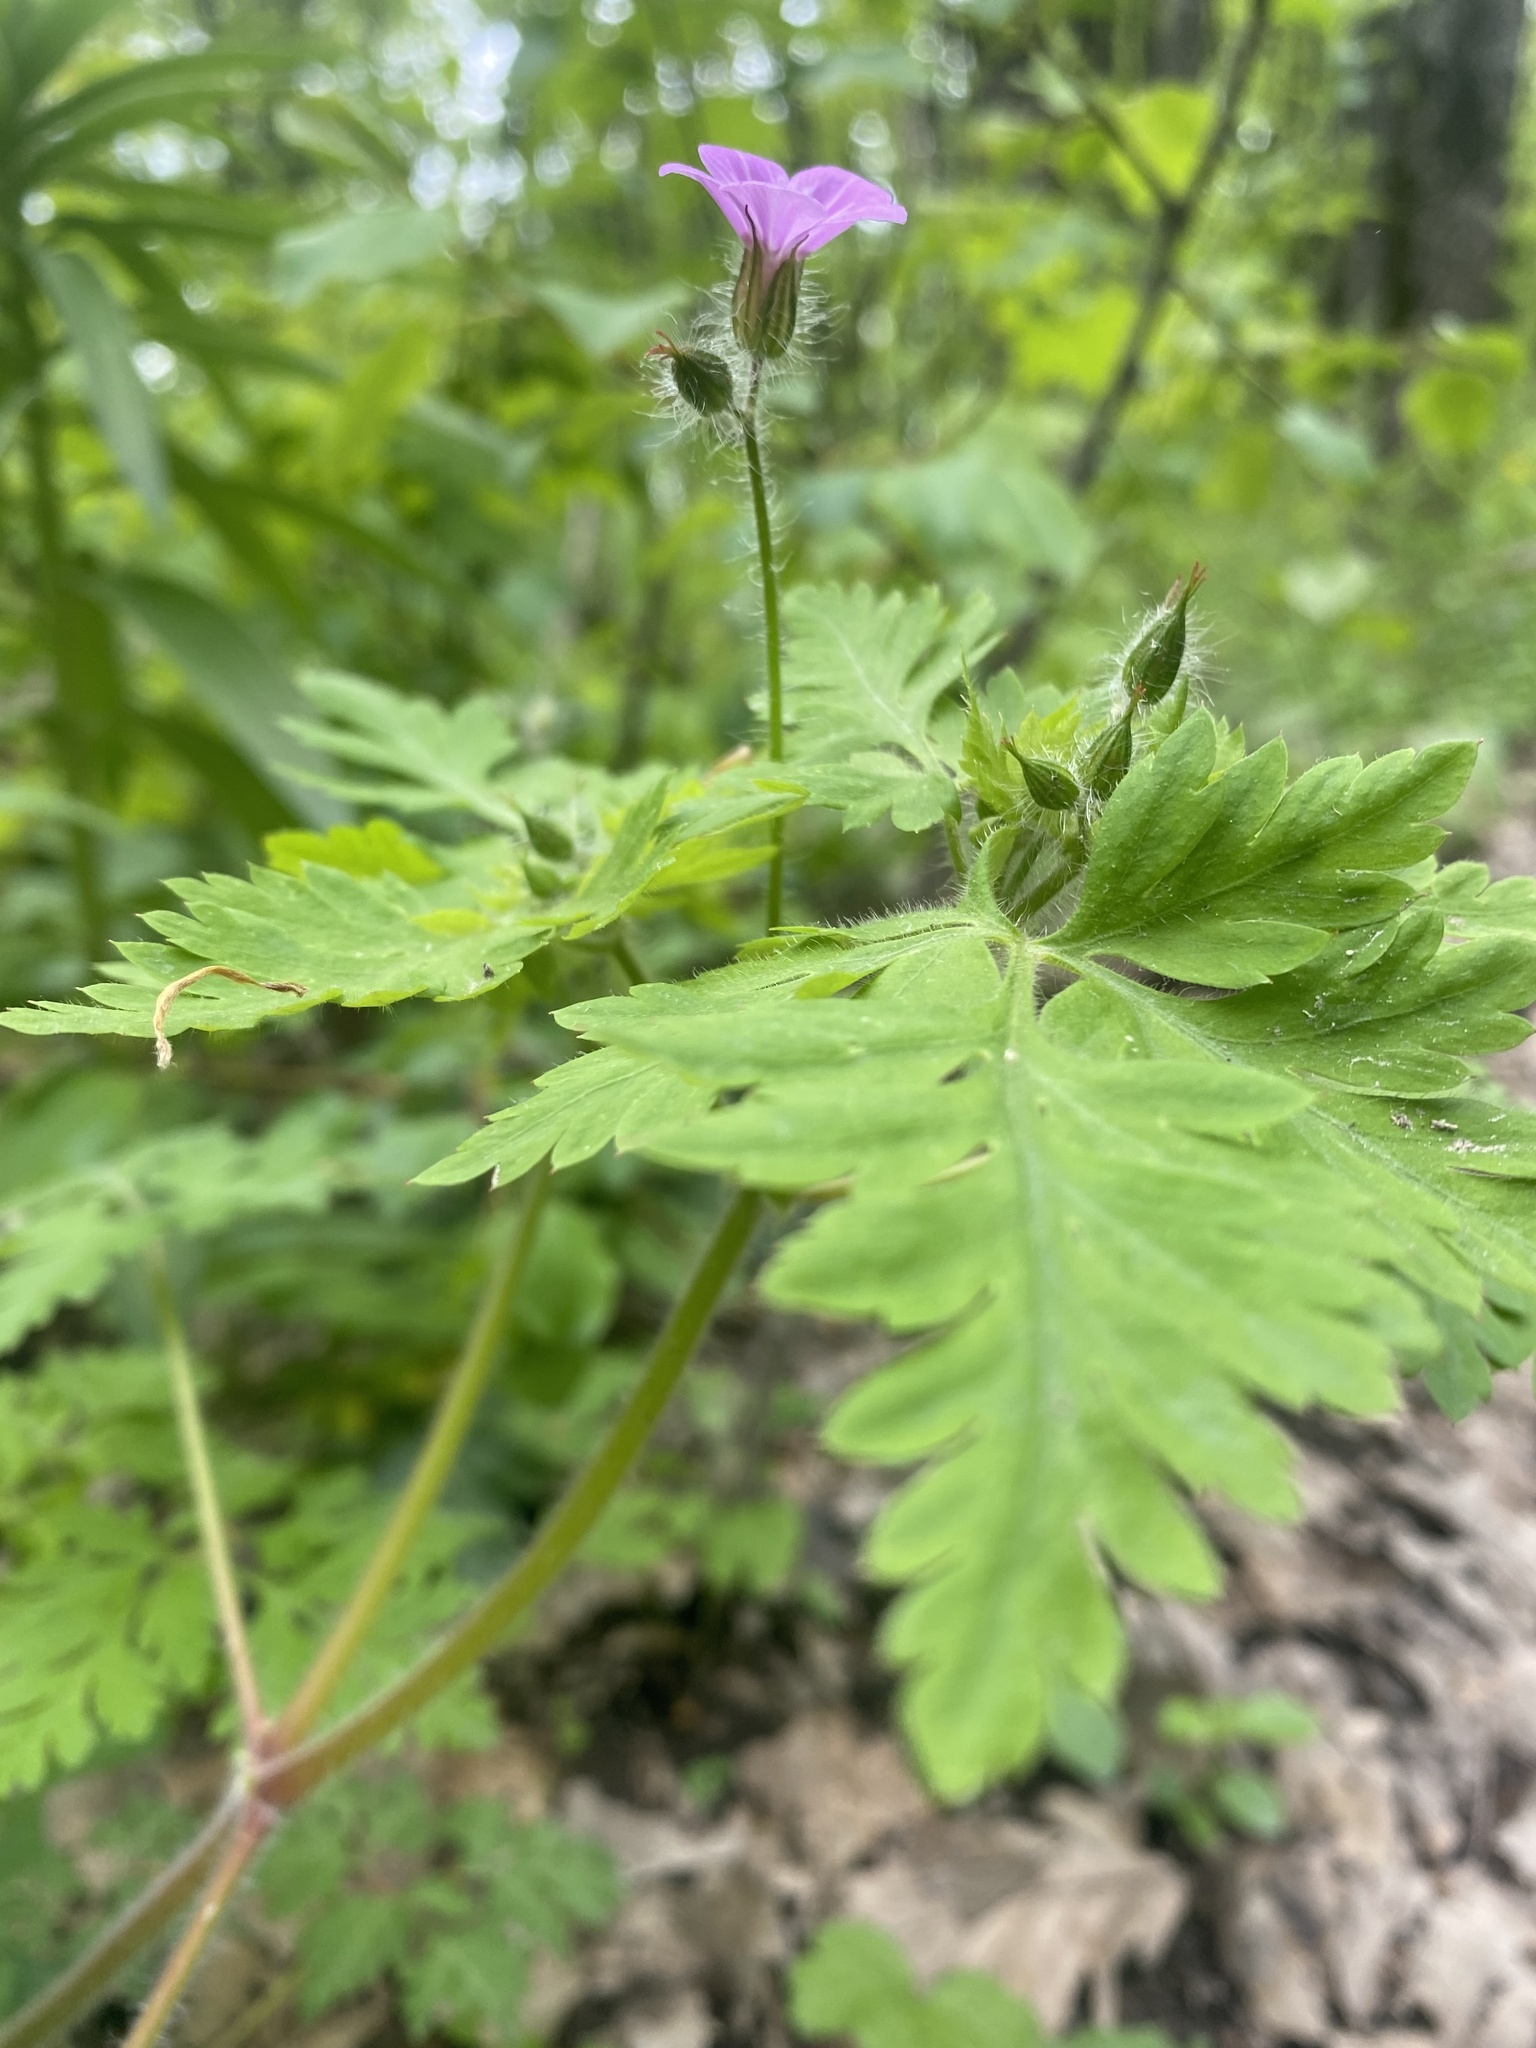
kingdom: Plantae
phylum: Tracheophyta
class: Magnoliopsida
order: Geraniales
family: Geraniaceae
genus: Geranium
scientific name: Geranium robertianum
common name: Herb-robert
